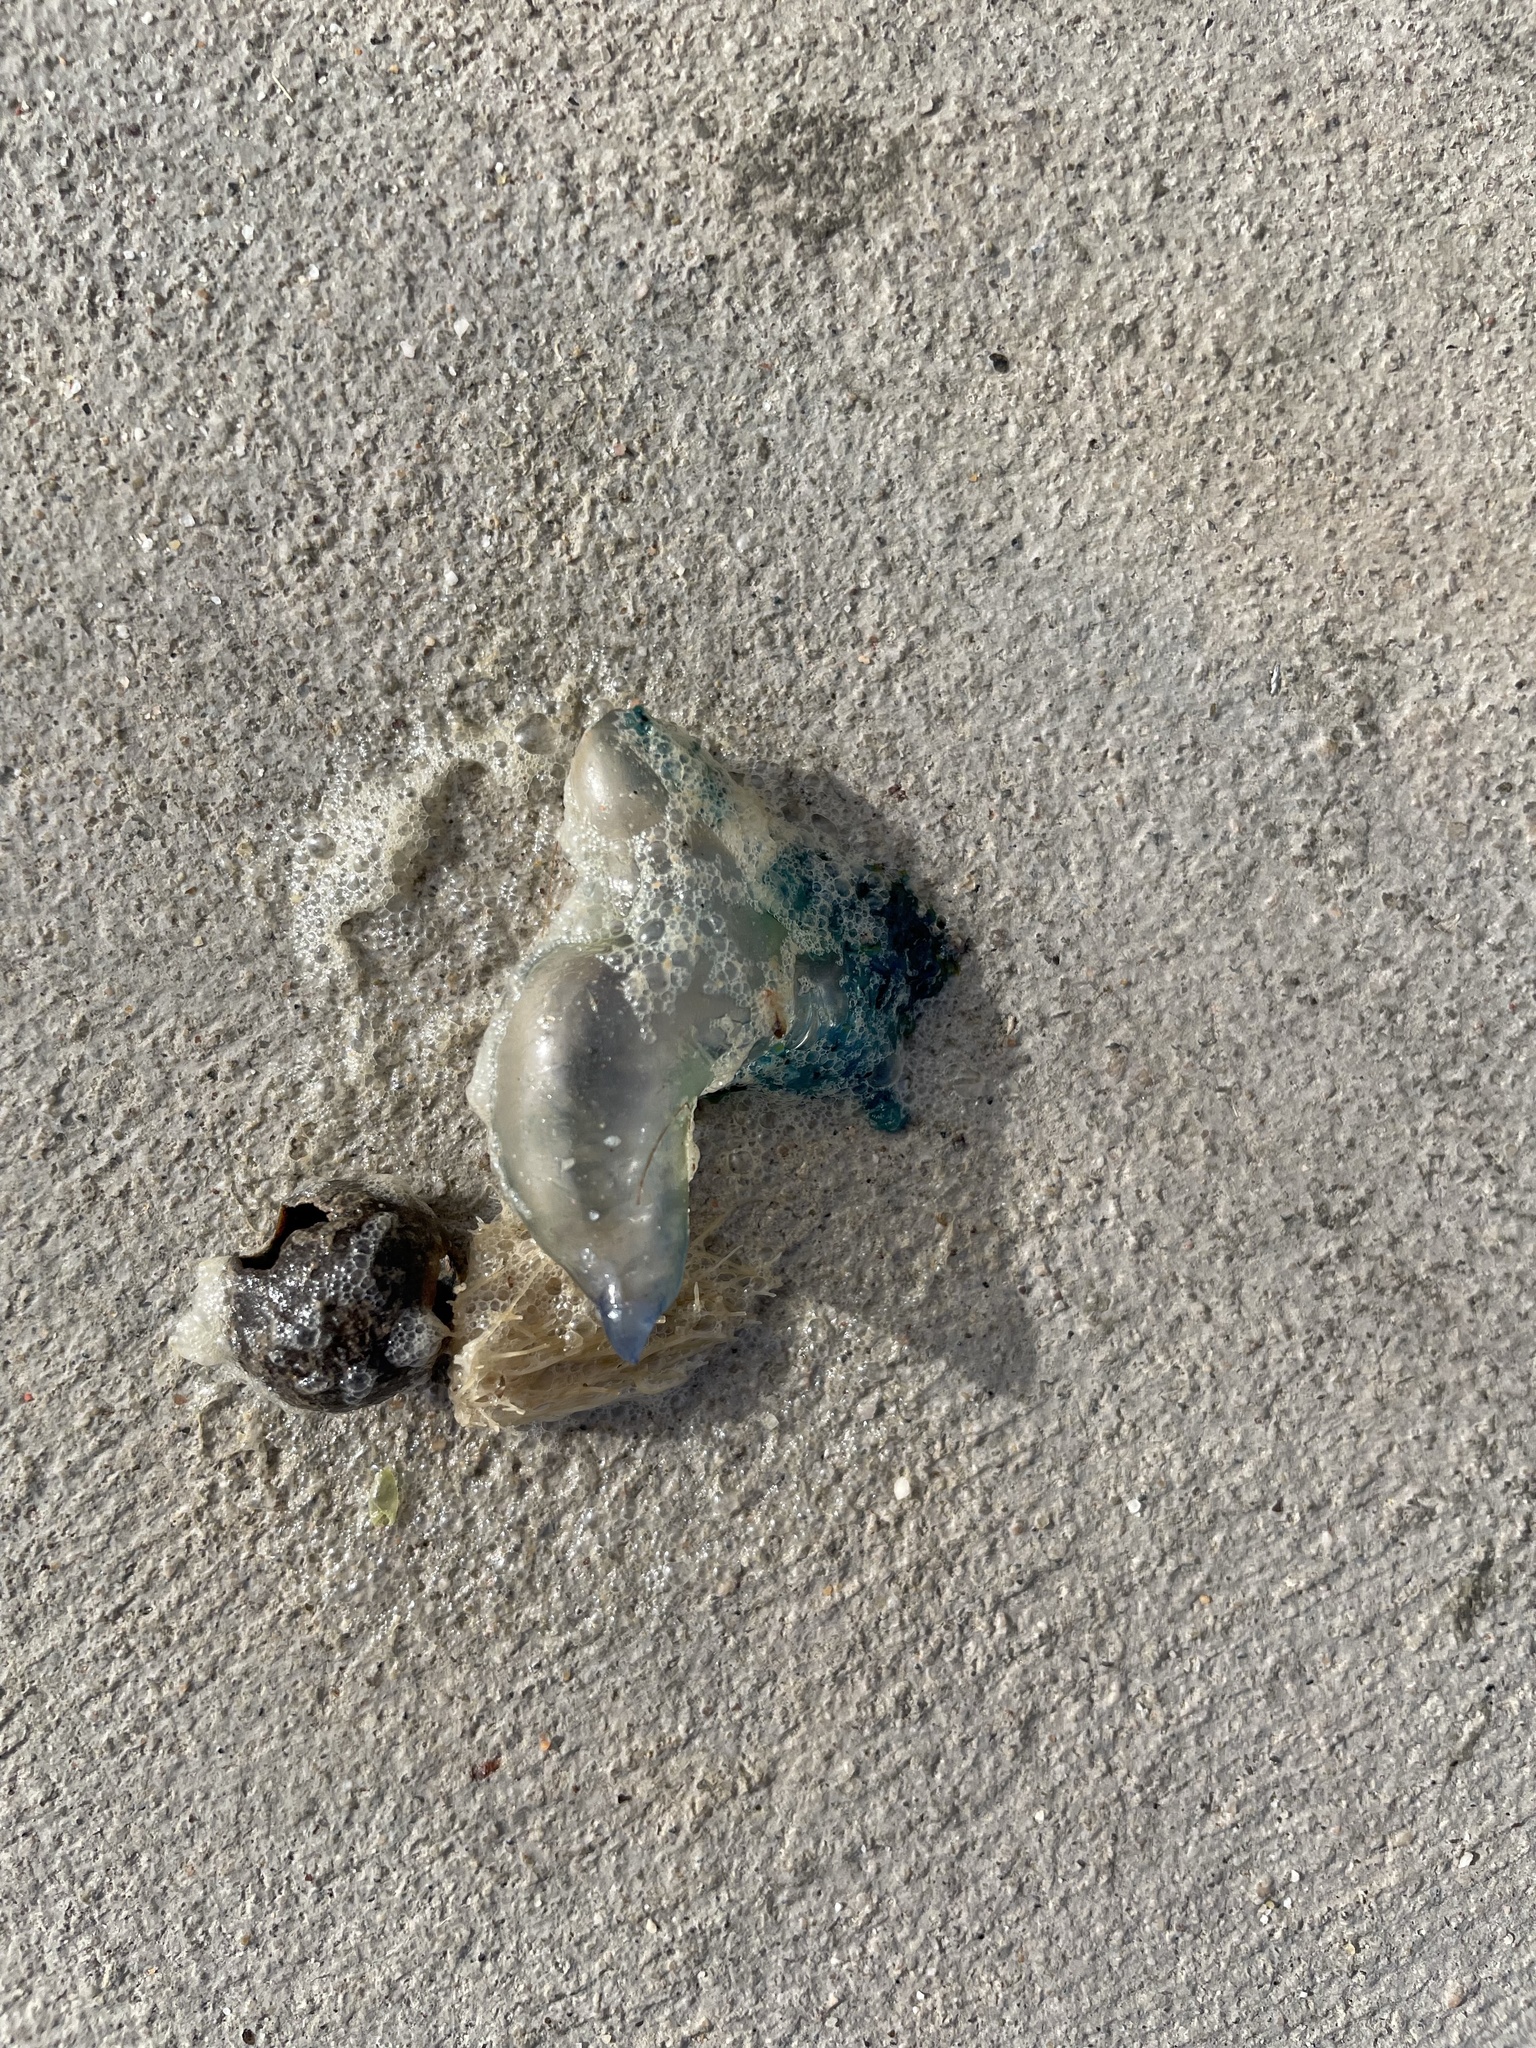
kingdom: Animalia
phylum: Cnidaria
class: Hydrozoa
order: Siphonophorae
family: Physaliidae
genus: Physalia
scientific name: Physalia physalis
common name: Portuguese man-of-war
